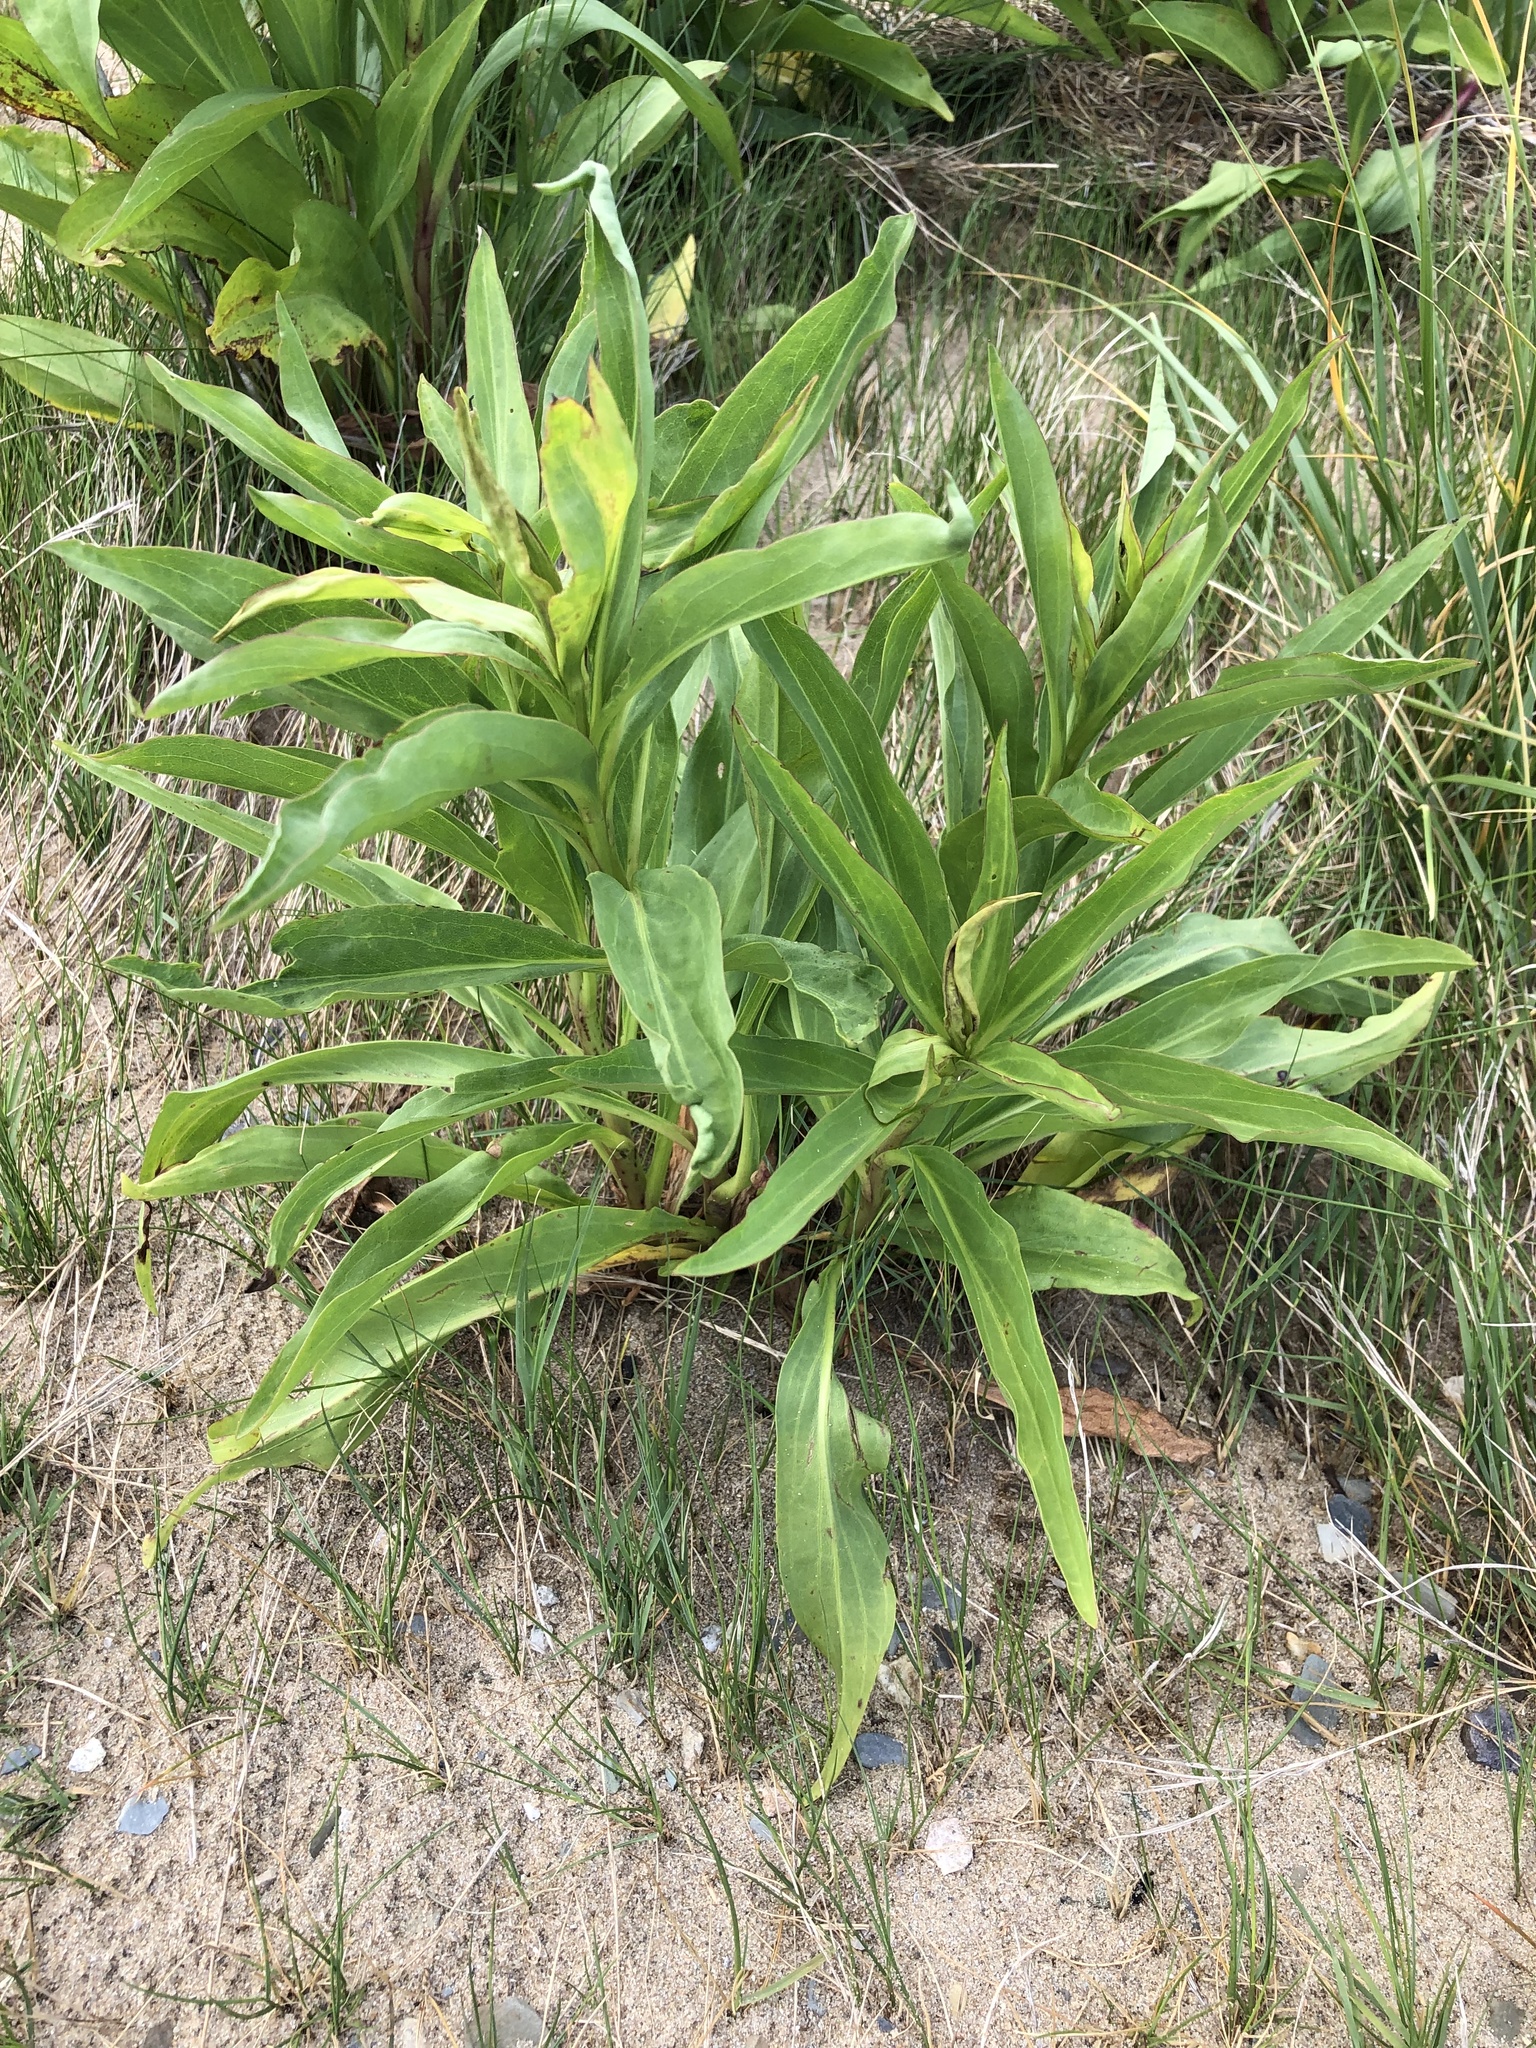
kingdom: Plantae
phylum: Tracheophyta
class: Magnoliopsida
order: Asterales
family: Asteraceae
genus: Solidago
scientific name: Solidago sempervirens
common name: Salt-marsh goldenrod
